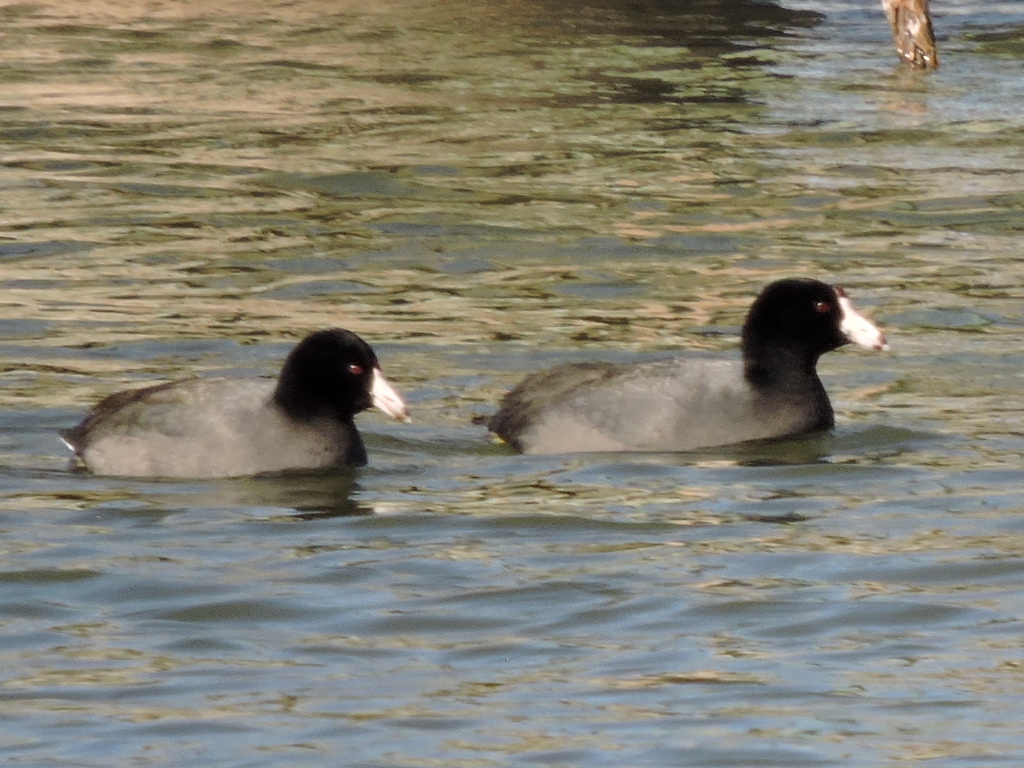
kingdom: Animalia
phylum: Chordata
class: Aves
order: Gruiformes
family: Rallidae
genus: Fulica
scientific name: Fulica americana
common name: American coot
